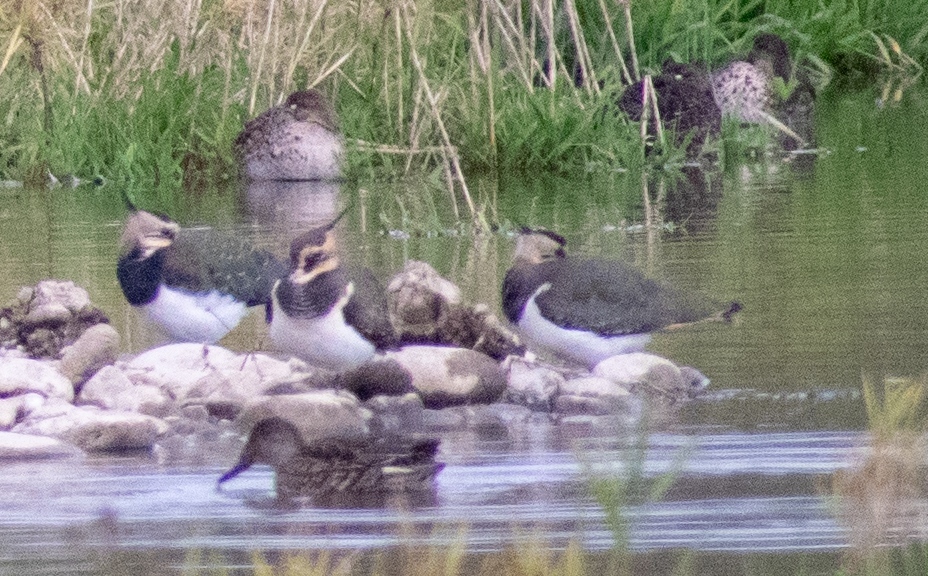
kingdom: Animalia
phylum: Chordata
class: Aves
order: Charadriiformes
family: Charadriidae
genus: Vanellus
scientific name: Vanellus vanellus
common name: Northern lapwing
